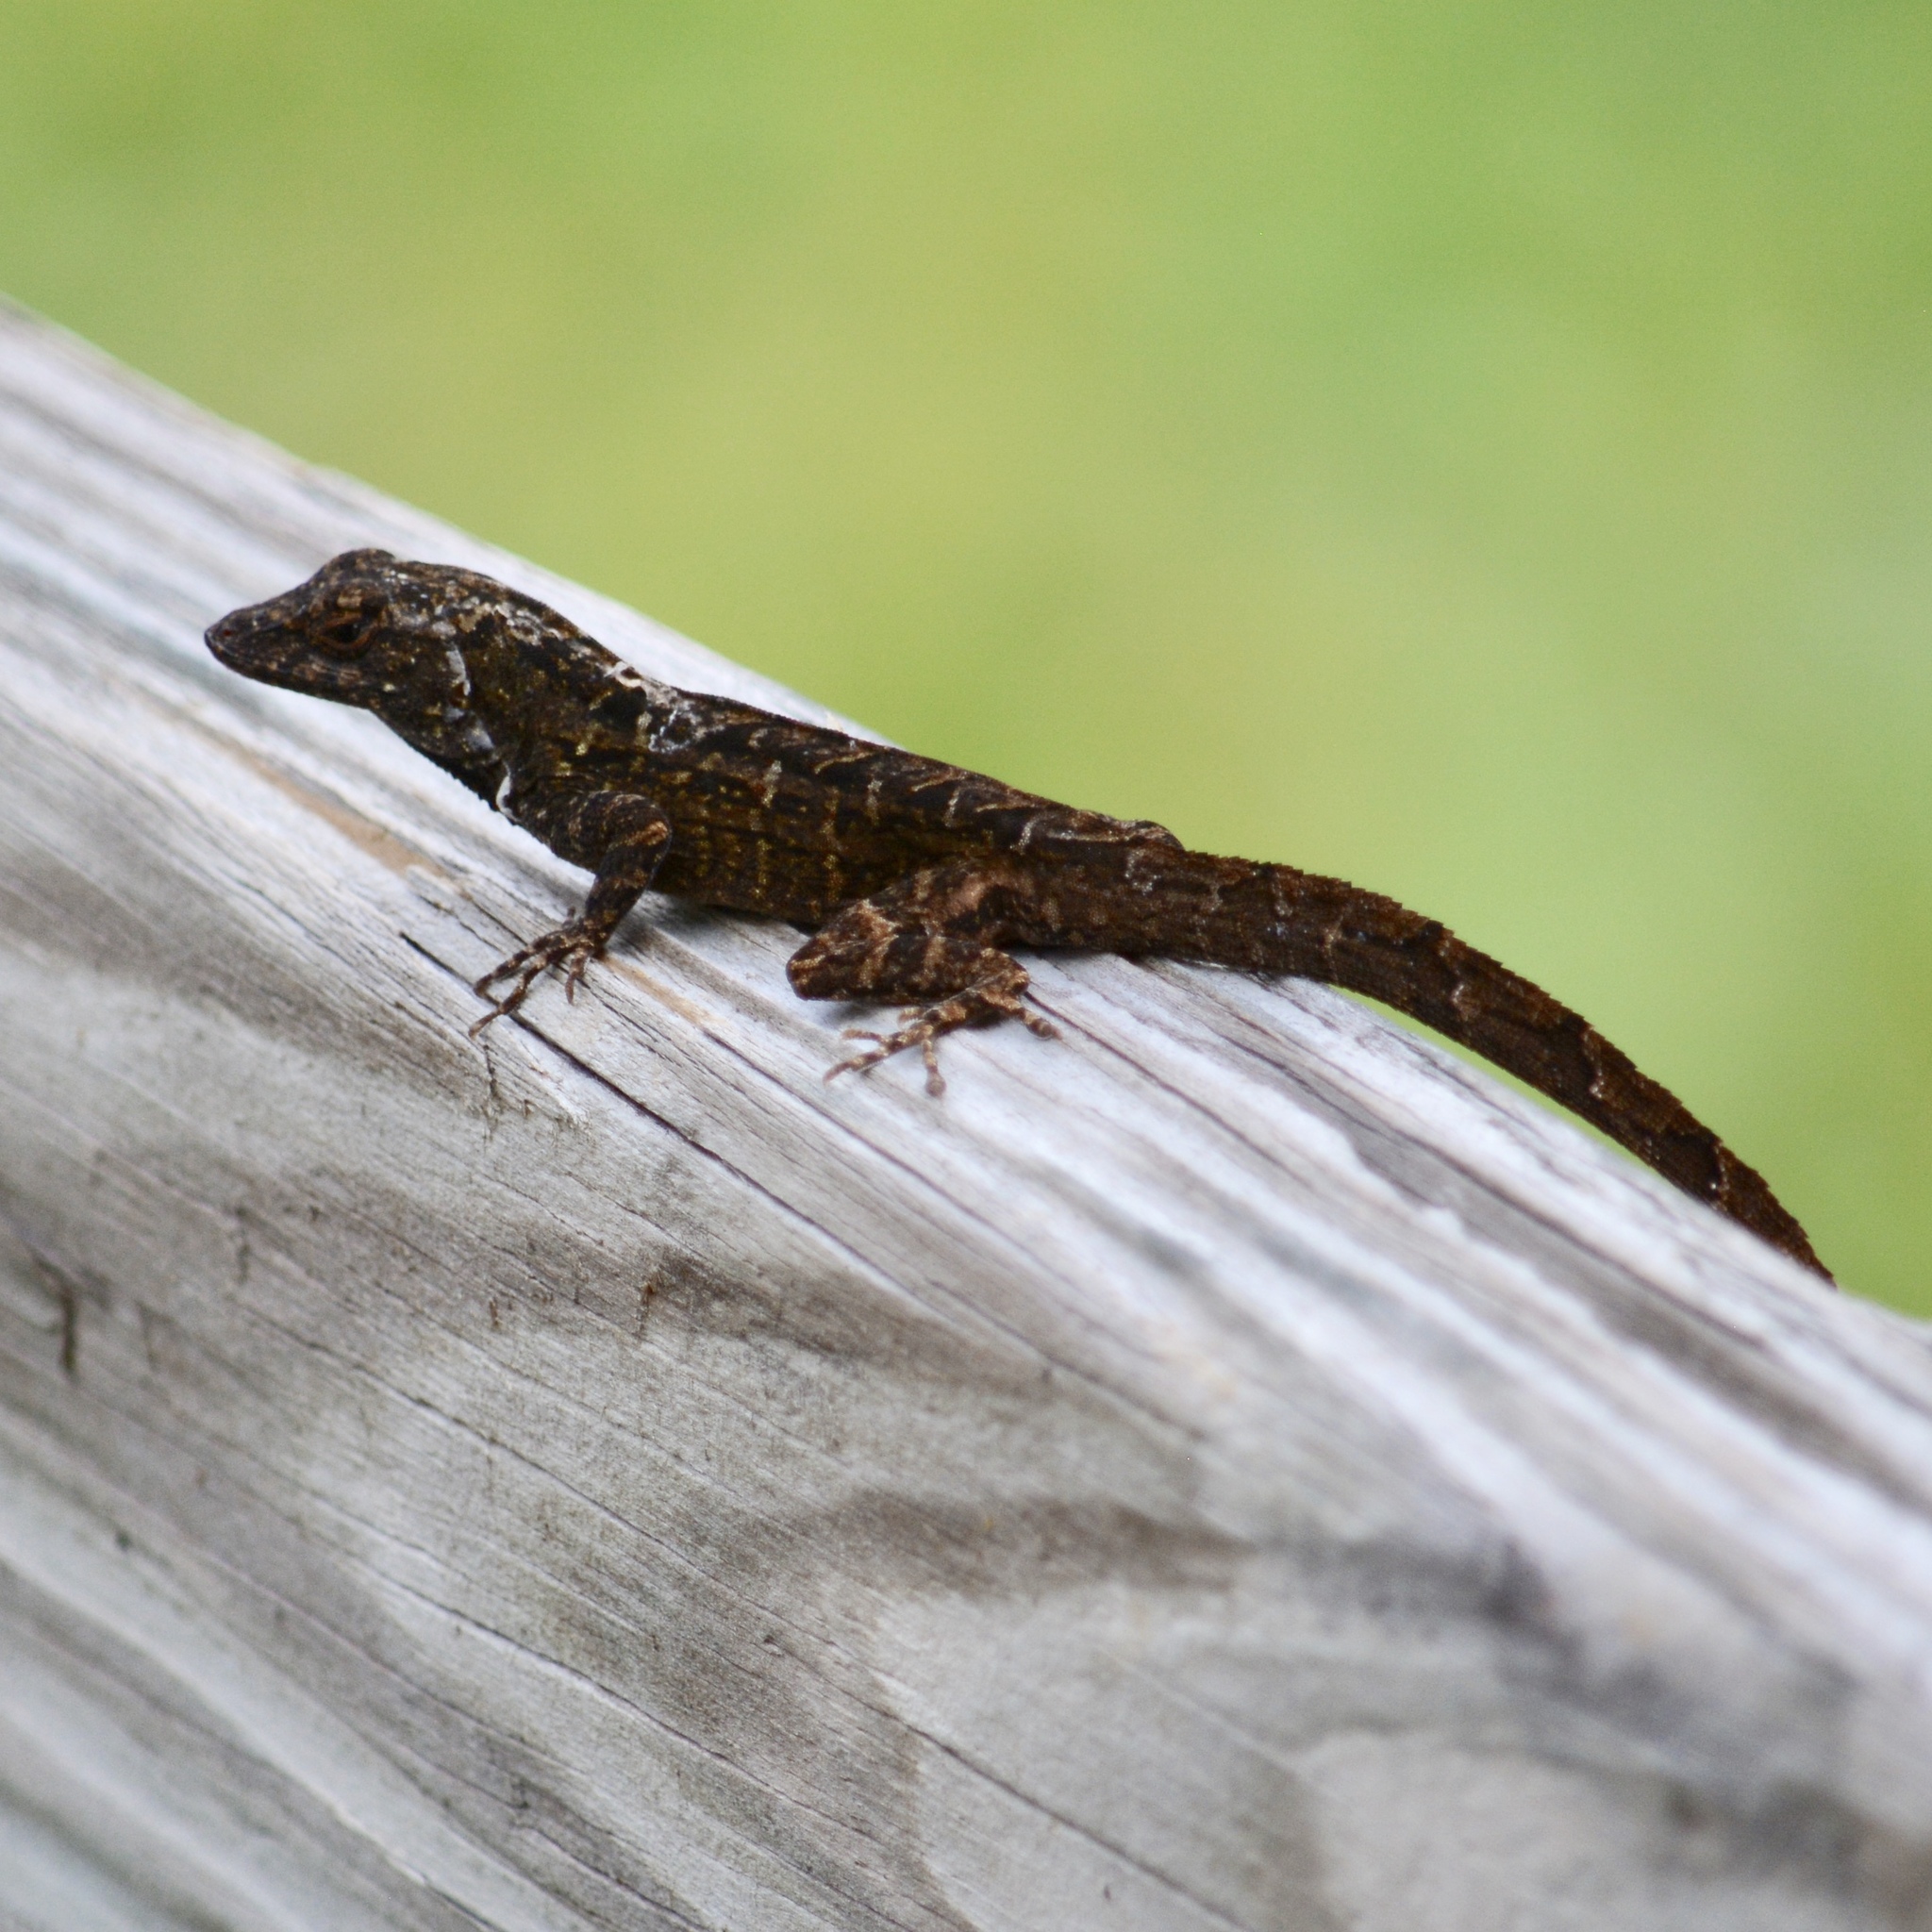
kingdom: Animalia
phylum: Chordata
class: Squamata
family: Dactyloidae
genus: Anolis
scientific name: Anolis sagrei
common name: Brown anole
